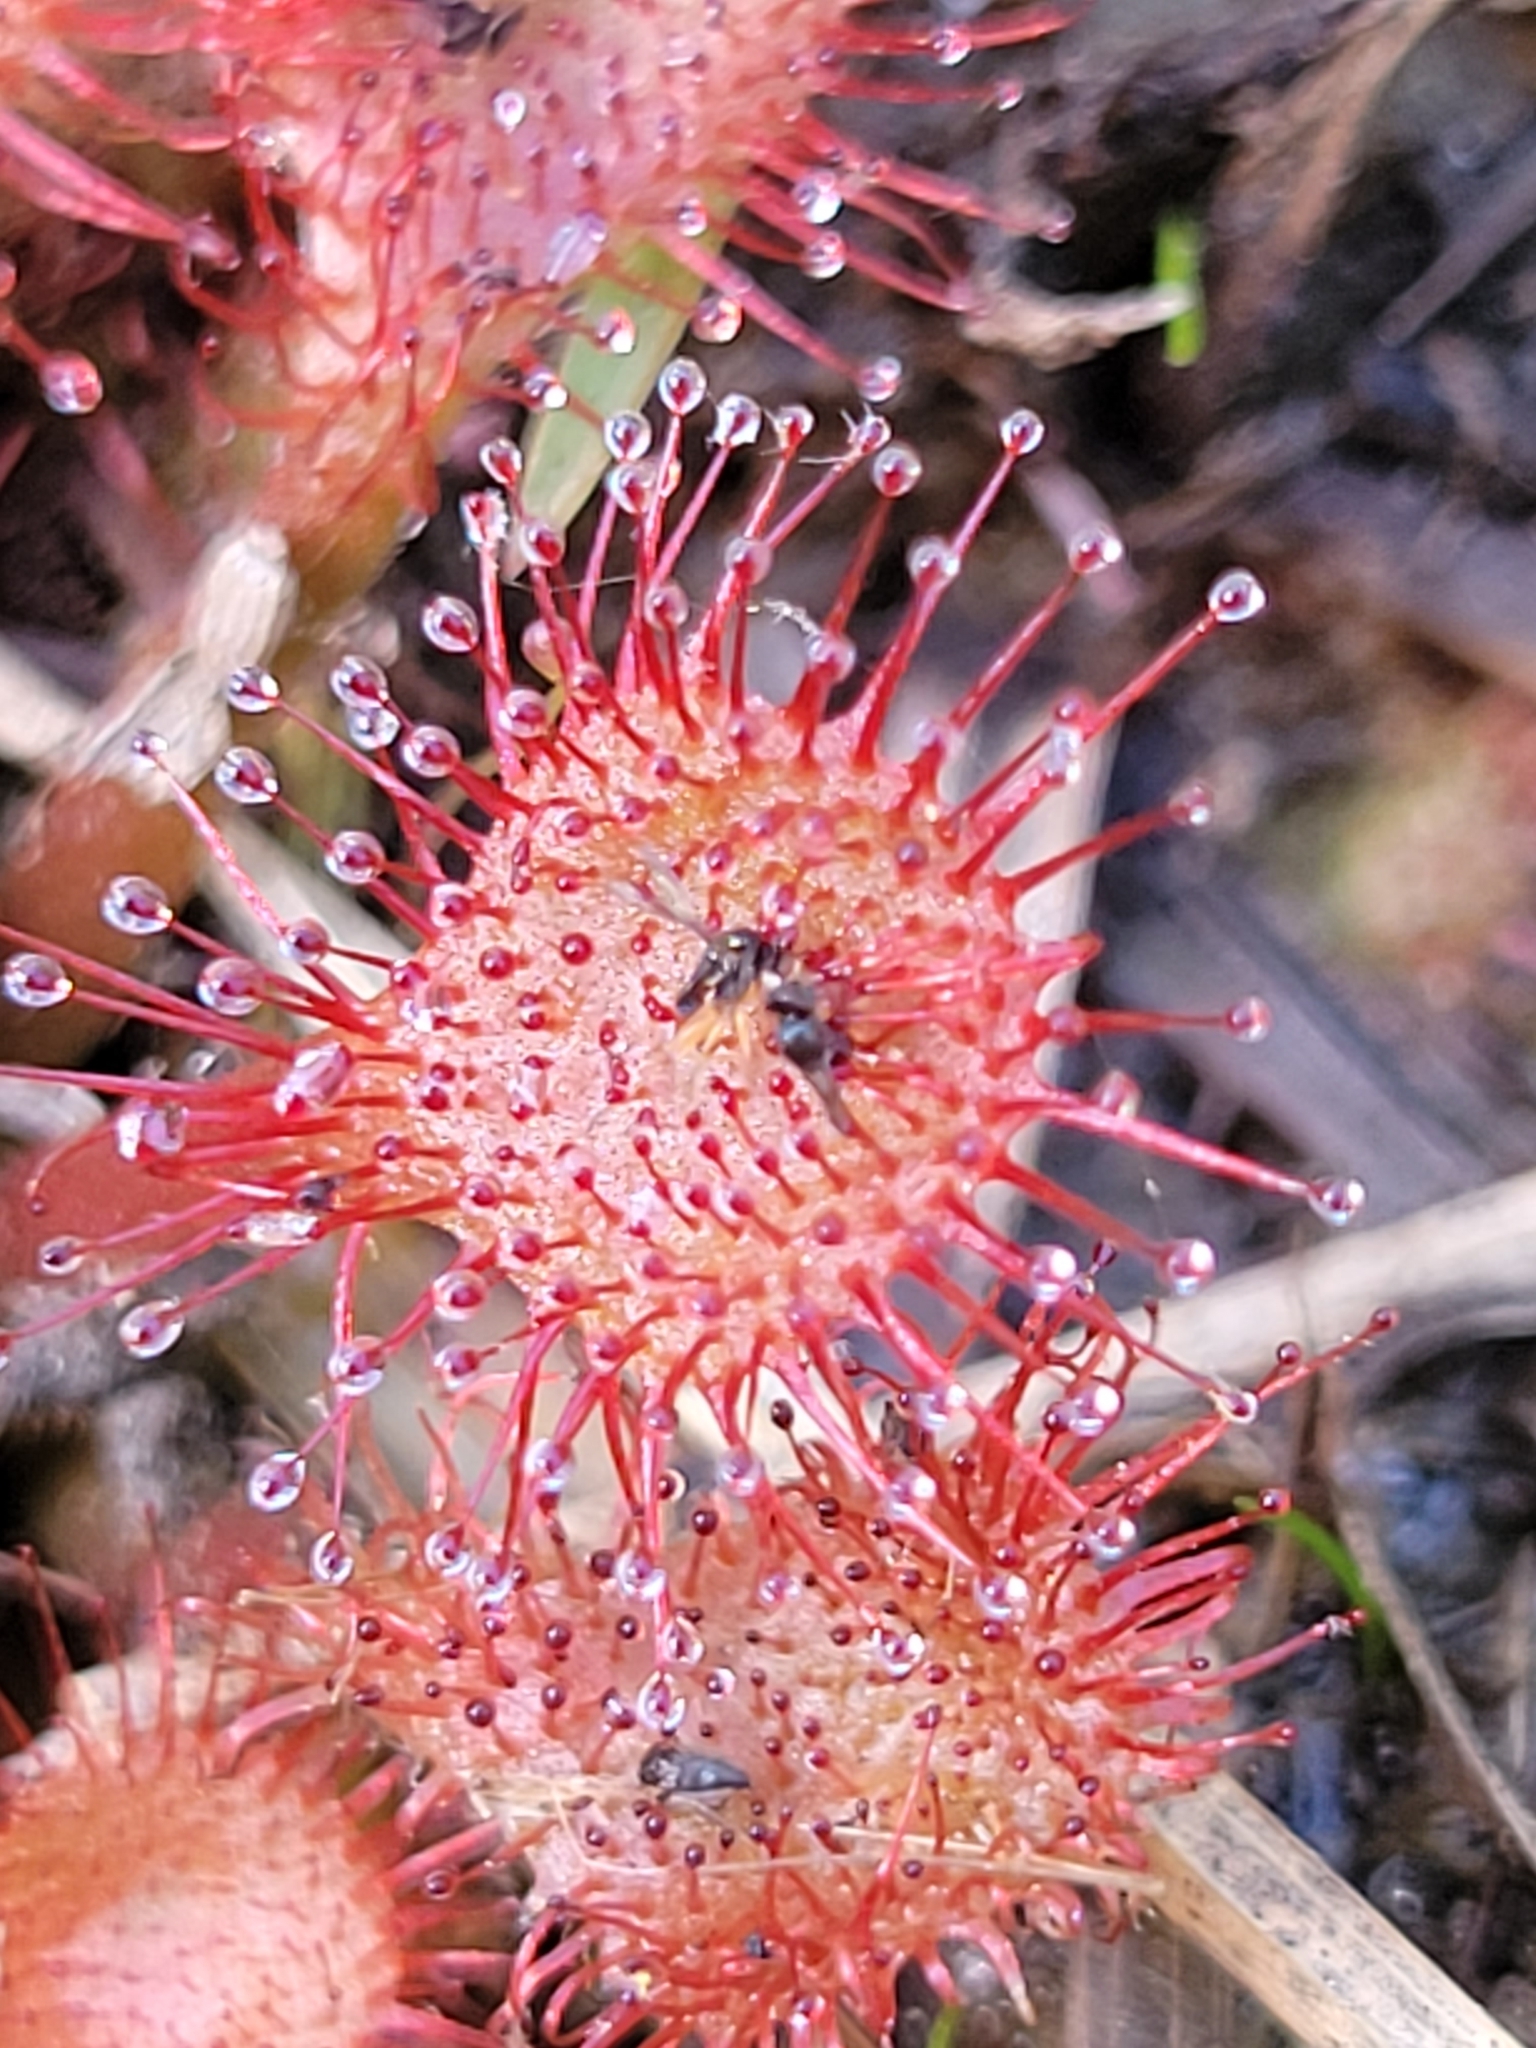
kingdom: Plantae
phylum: Tracheophyta
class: Magnoliopsida
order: Caryophyllales
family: Droseraceae
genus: Drosera
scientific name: Drosera capillaris
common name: Pink sundew
